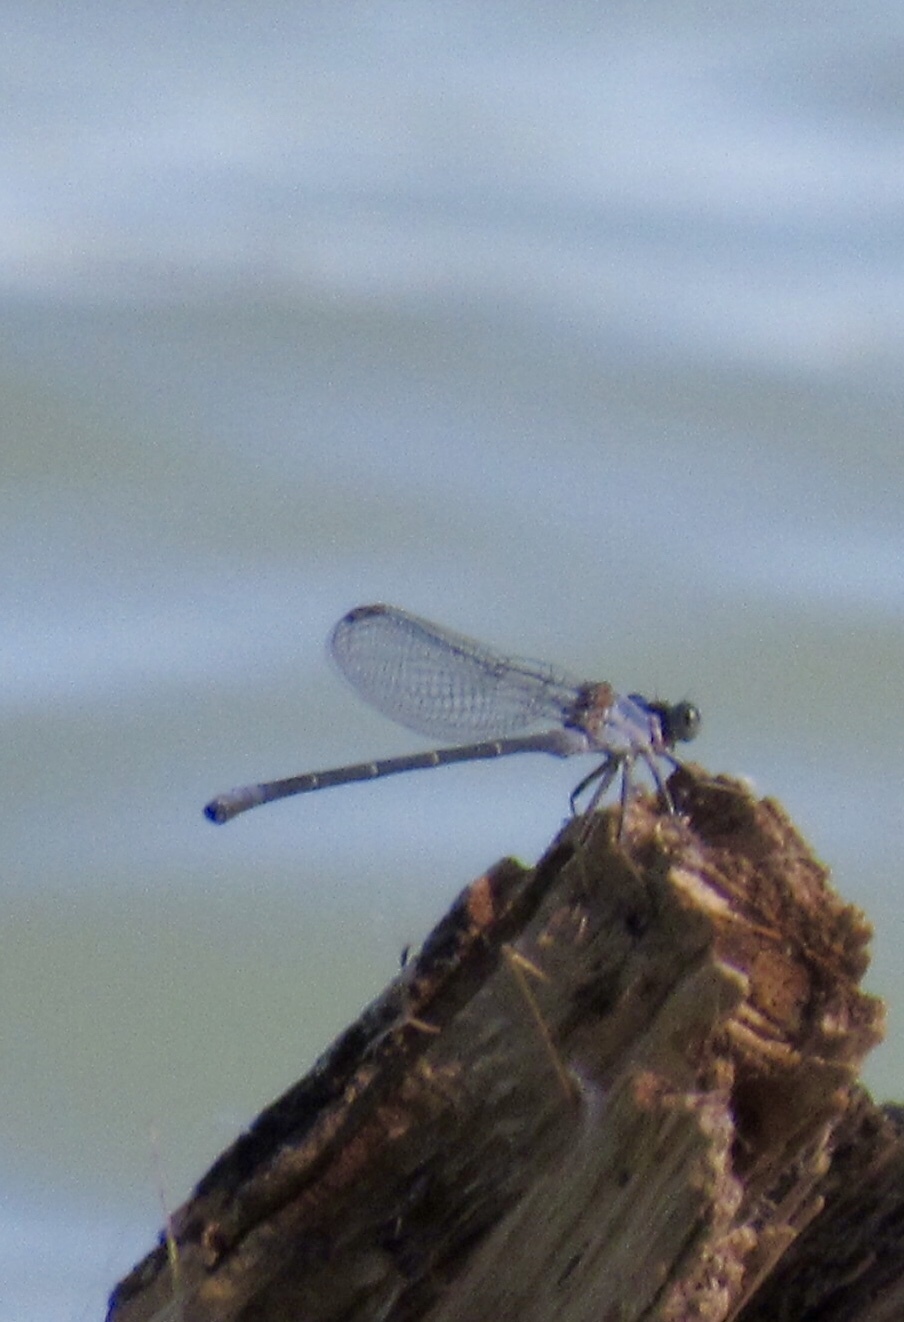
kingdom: Animalia
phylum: Arthropoda
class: Insecta
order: Odonata
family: Coenagrionidae
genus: Argia
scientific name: Argia moesta
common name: Powdered dancer
